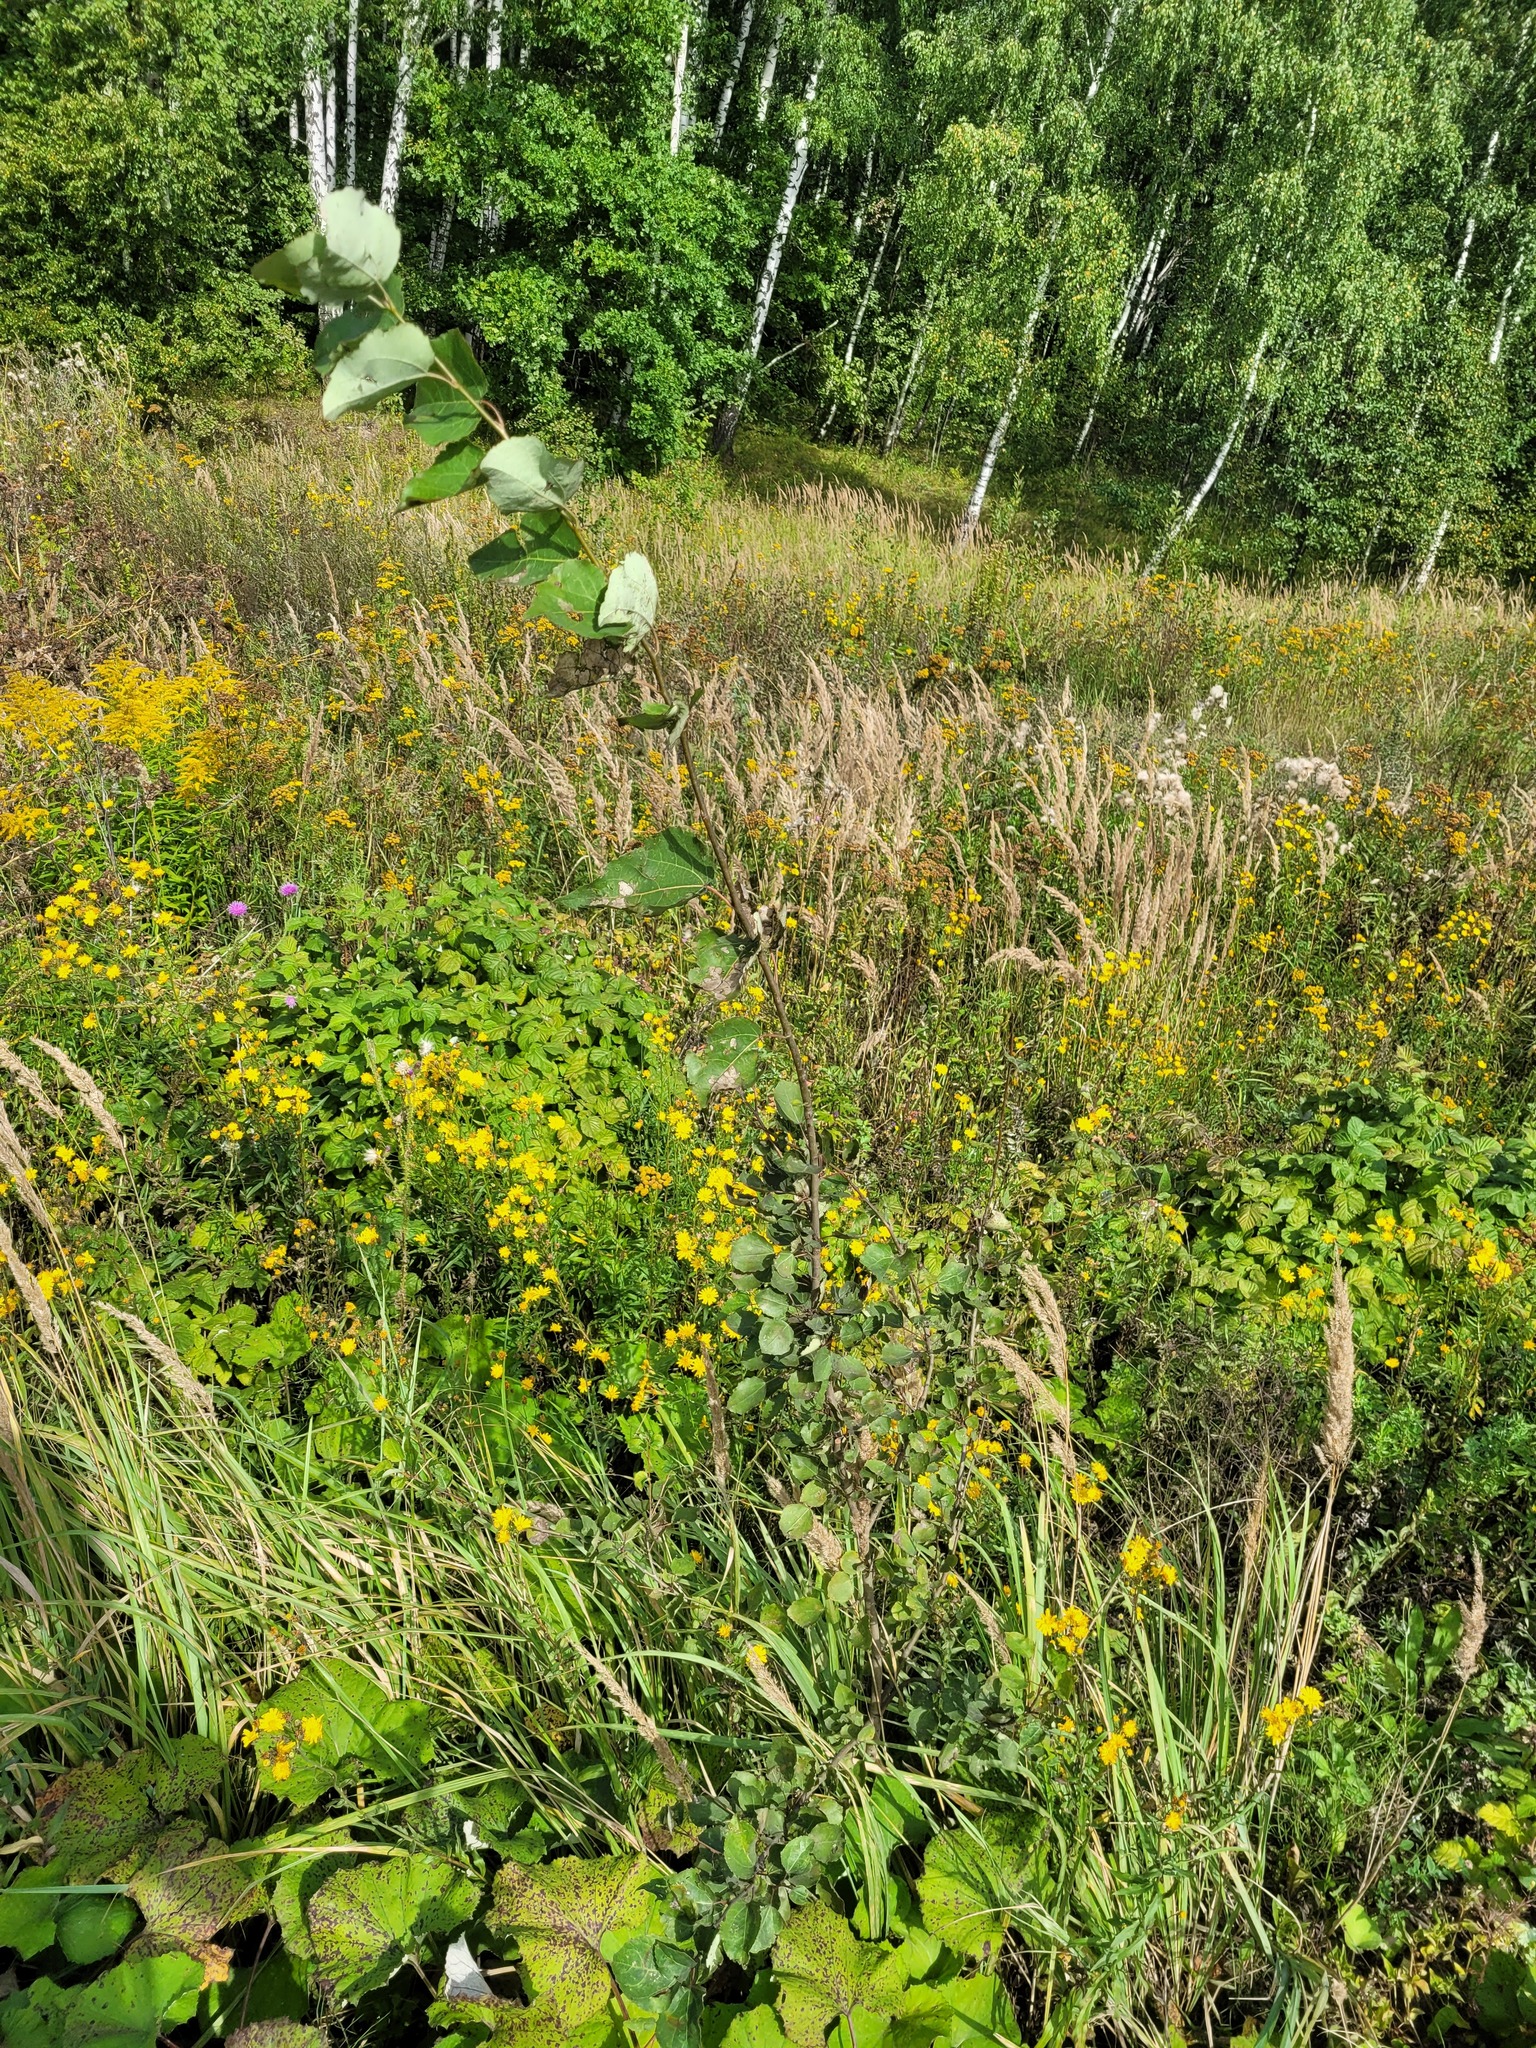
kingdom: Plantae
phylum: Tracheophyta
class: Magnoliopsida
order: Malpighiales
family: Salicaceae
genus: Populus
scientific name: Populus tremula
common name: European aspen
